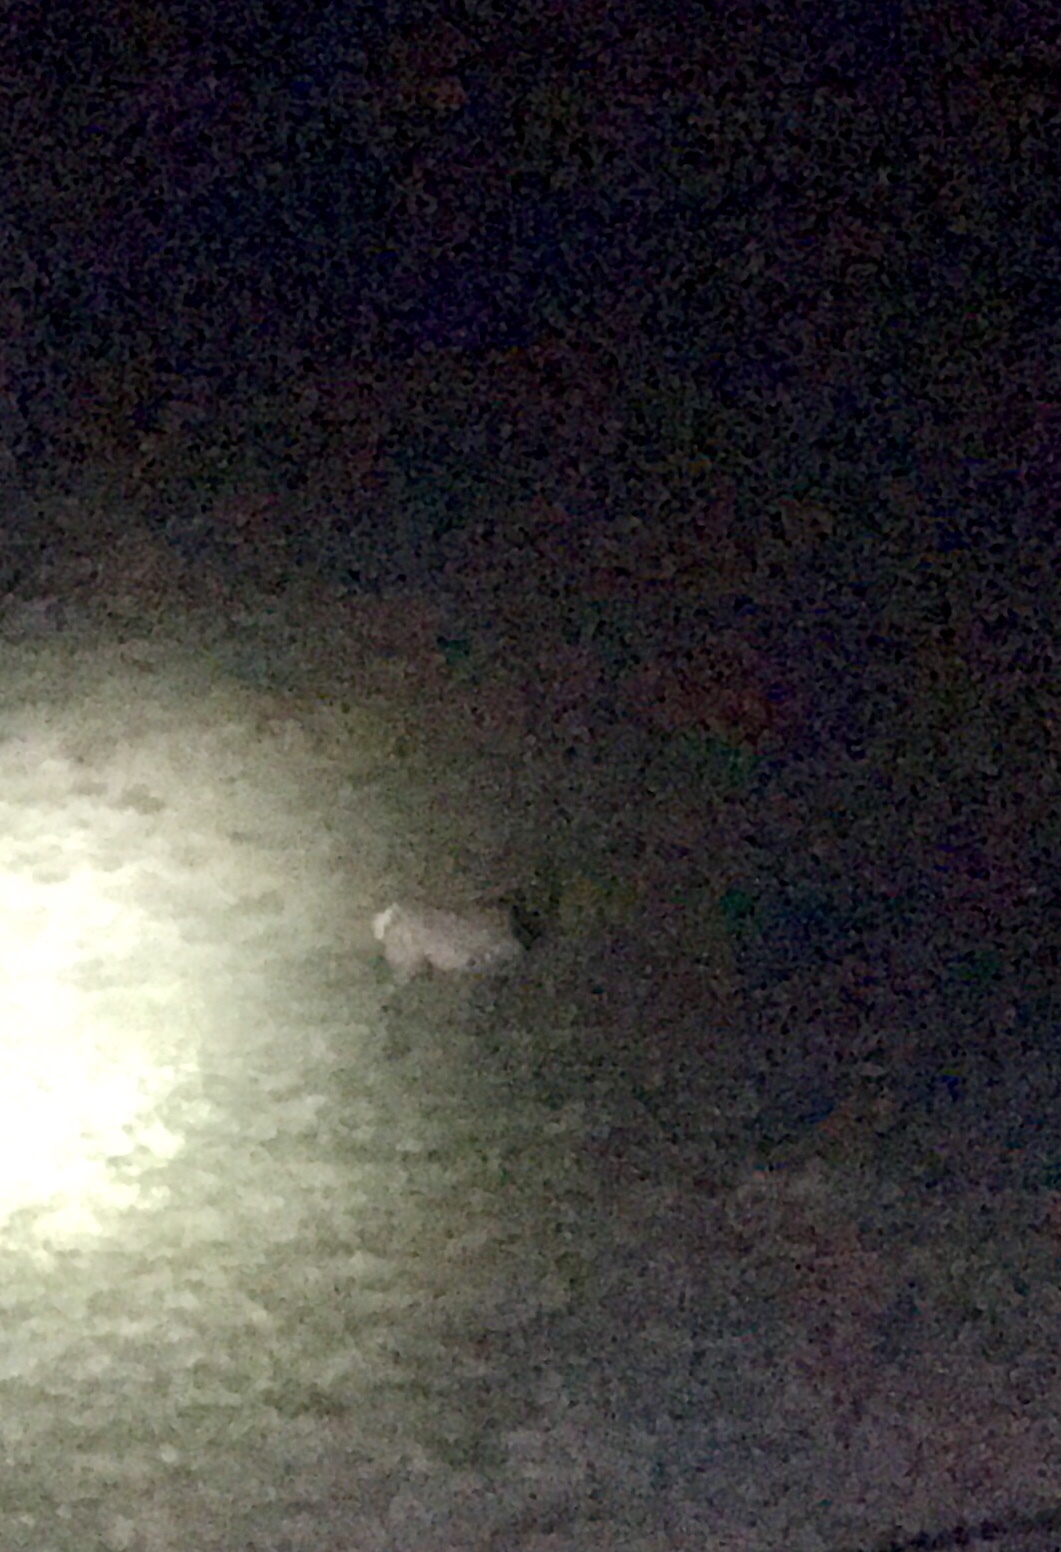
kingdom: Animalia
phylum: Chordata
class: Mammalia
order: Artiodactyla
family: Cervidae
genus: Cervus
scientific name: Cervus elaphus
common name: Red deer
